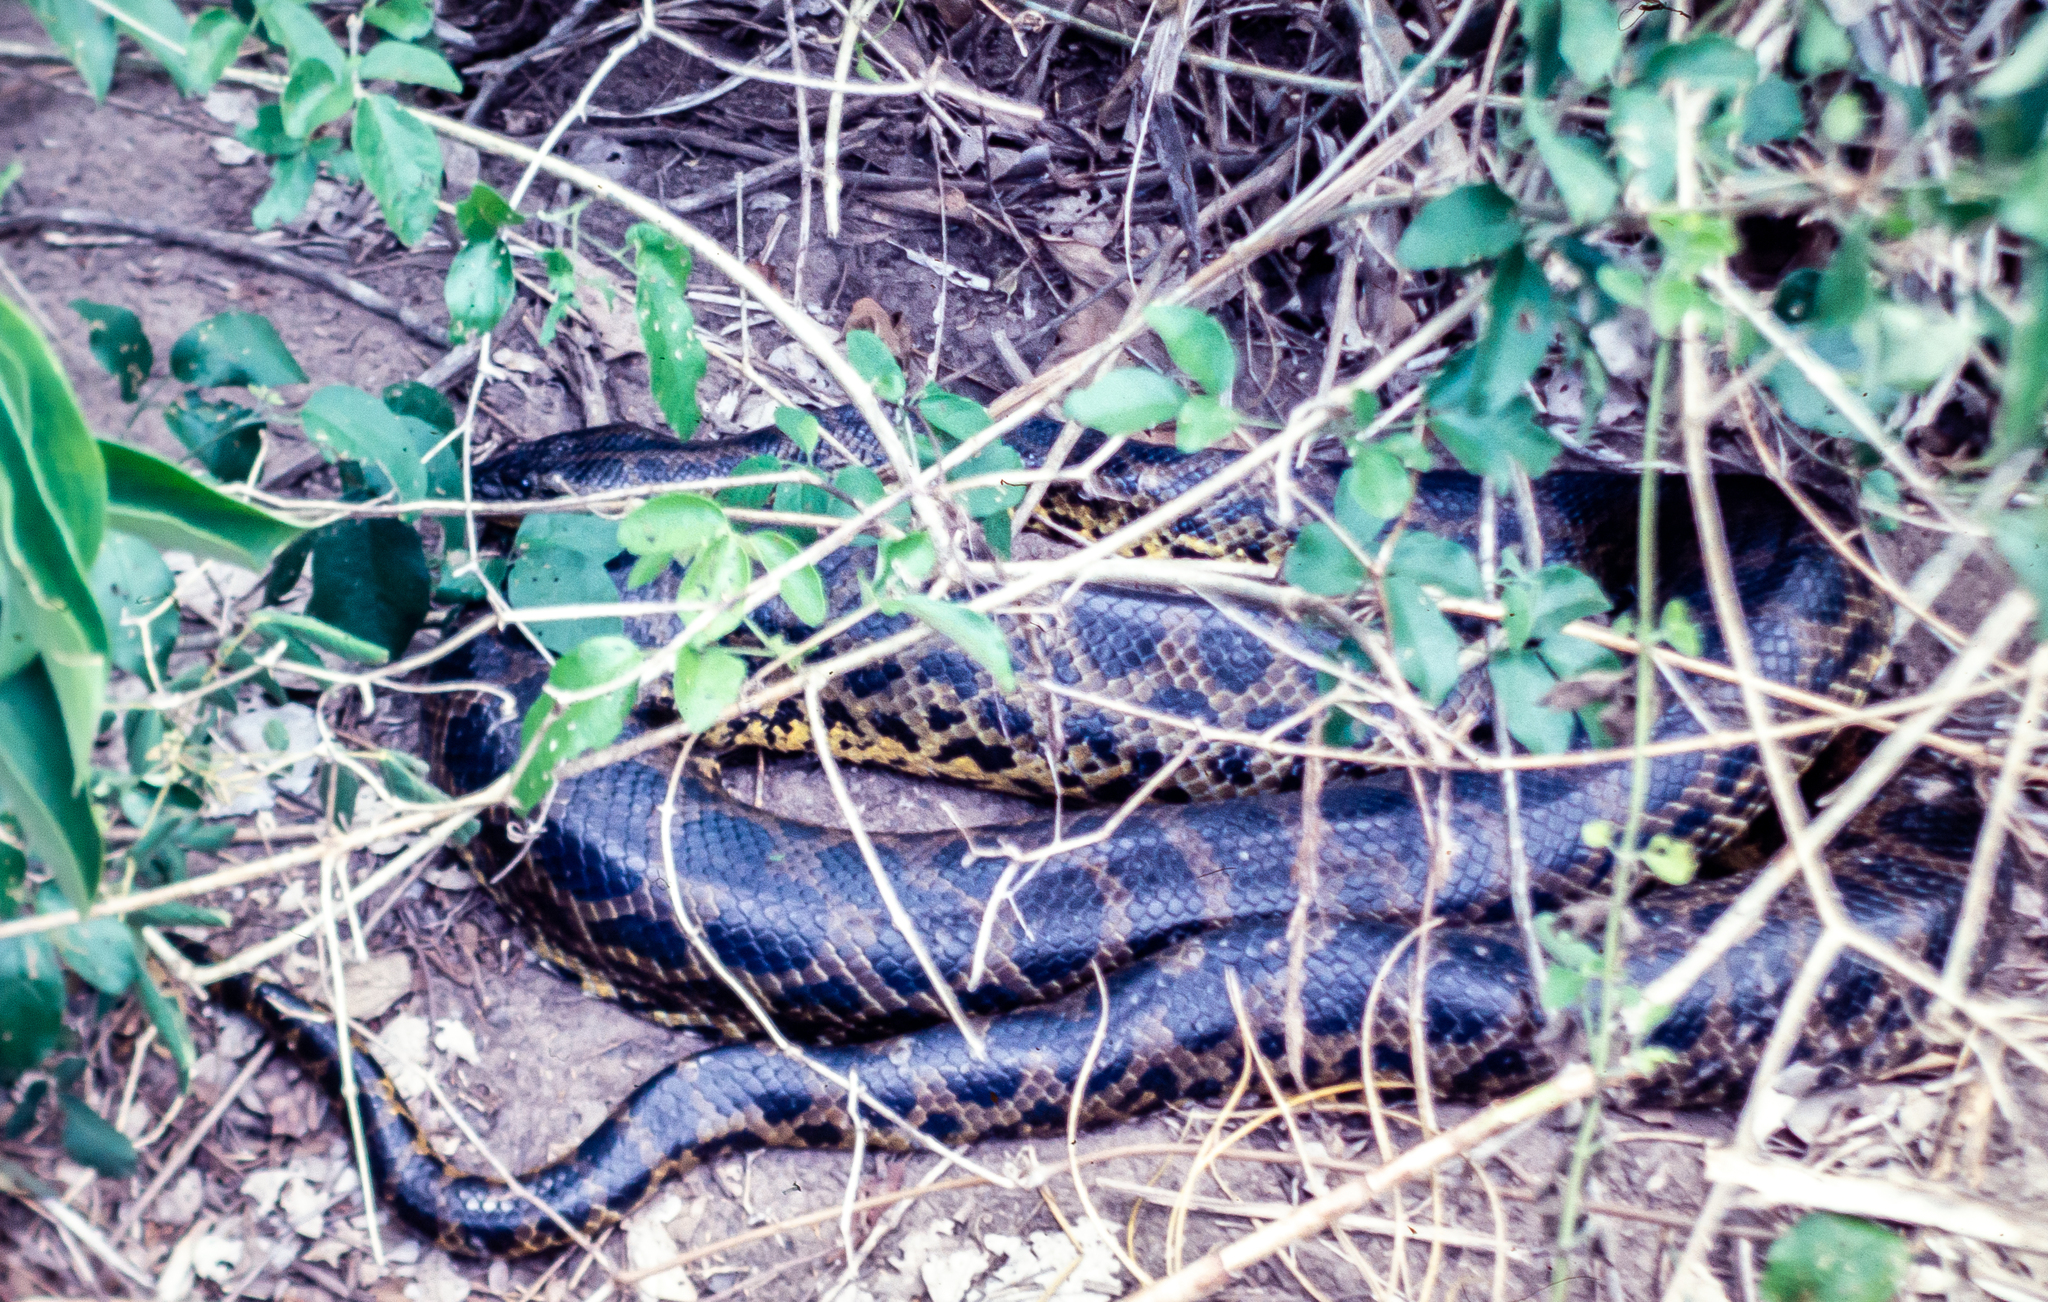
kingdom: Animalia
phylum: Chordata
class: Squamata
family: Boidae
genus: Eunectes
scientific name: Eunectes notaeus
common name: Yellow anaconda
